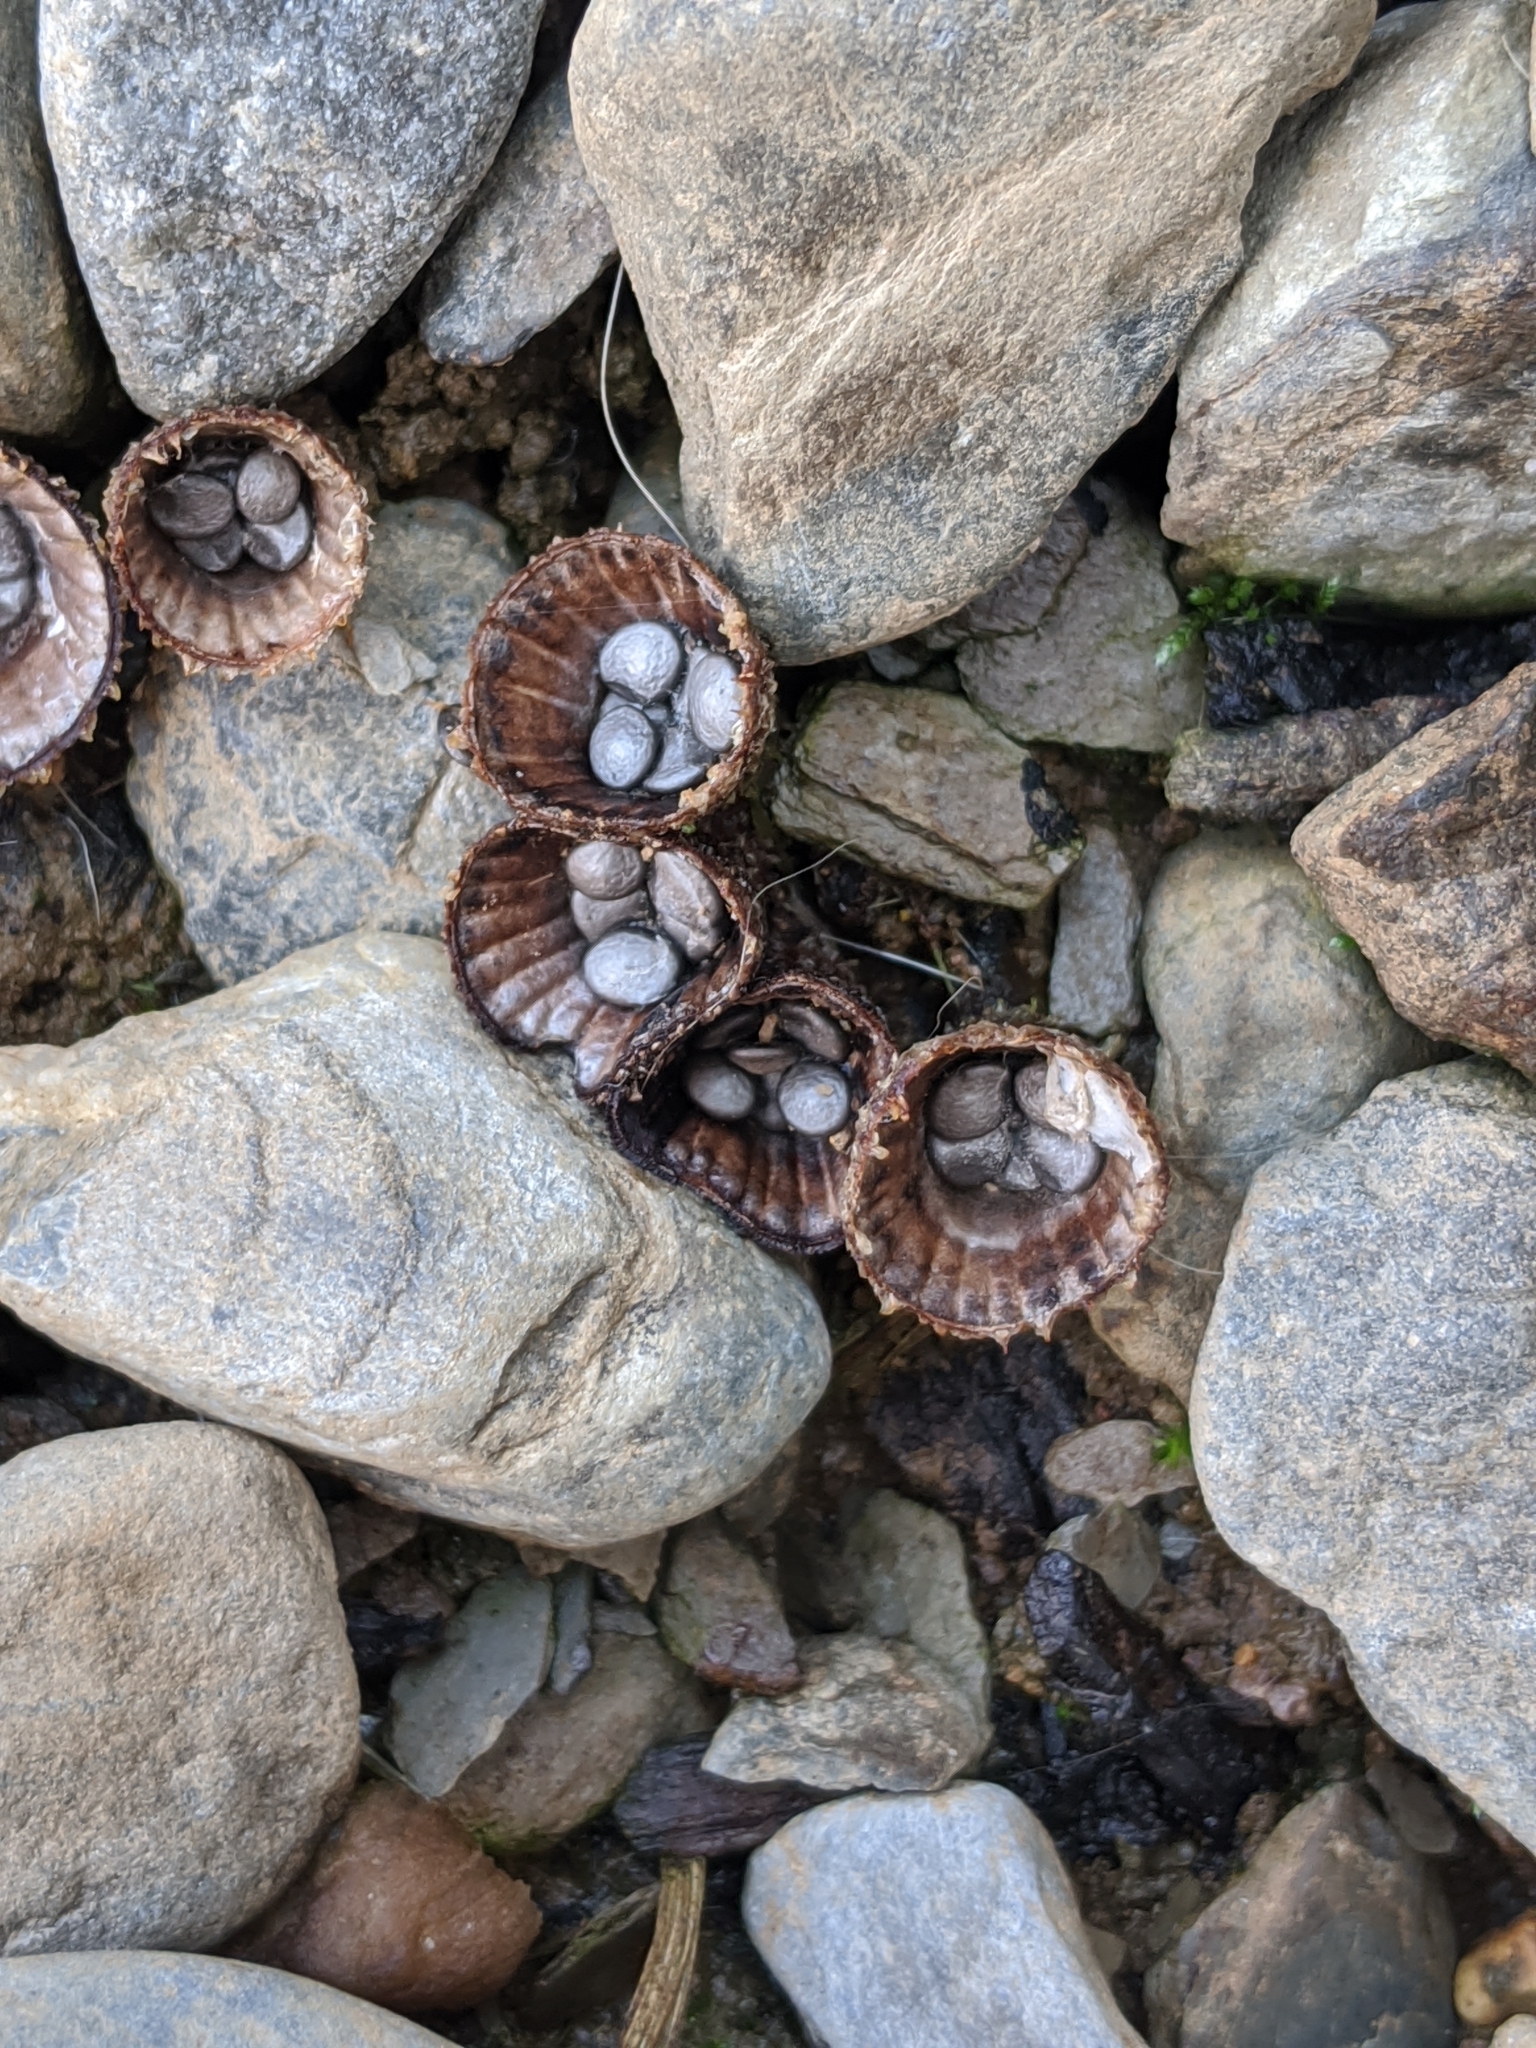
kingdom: Fungi
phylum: Basidiomycota
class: Agaricomycetes
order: Agaricales
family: Agaricaceae
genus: Cyathus
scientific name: Cyathus striatus
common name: Fluted bird's nest
